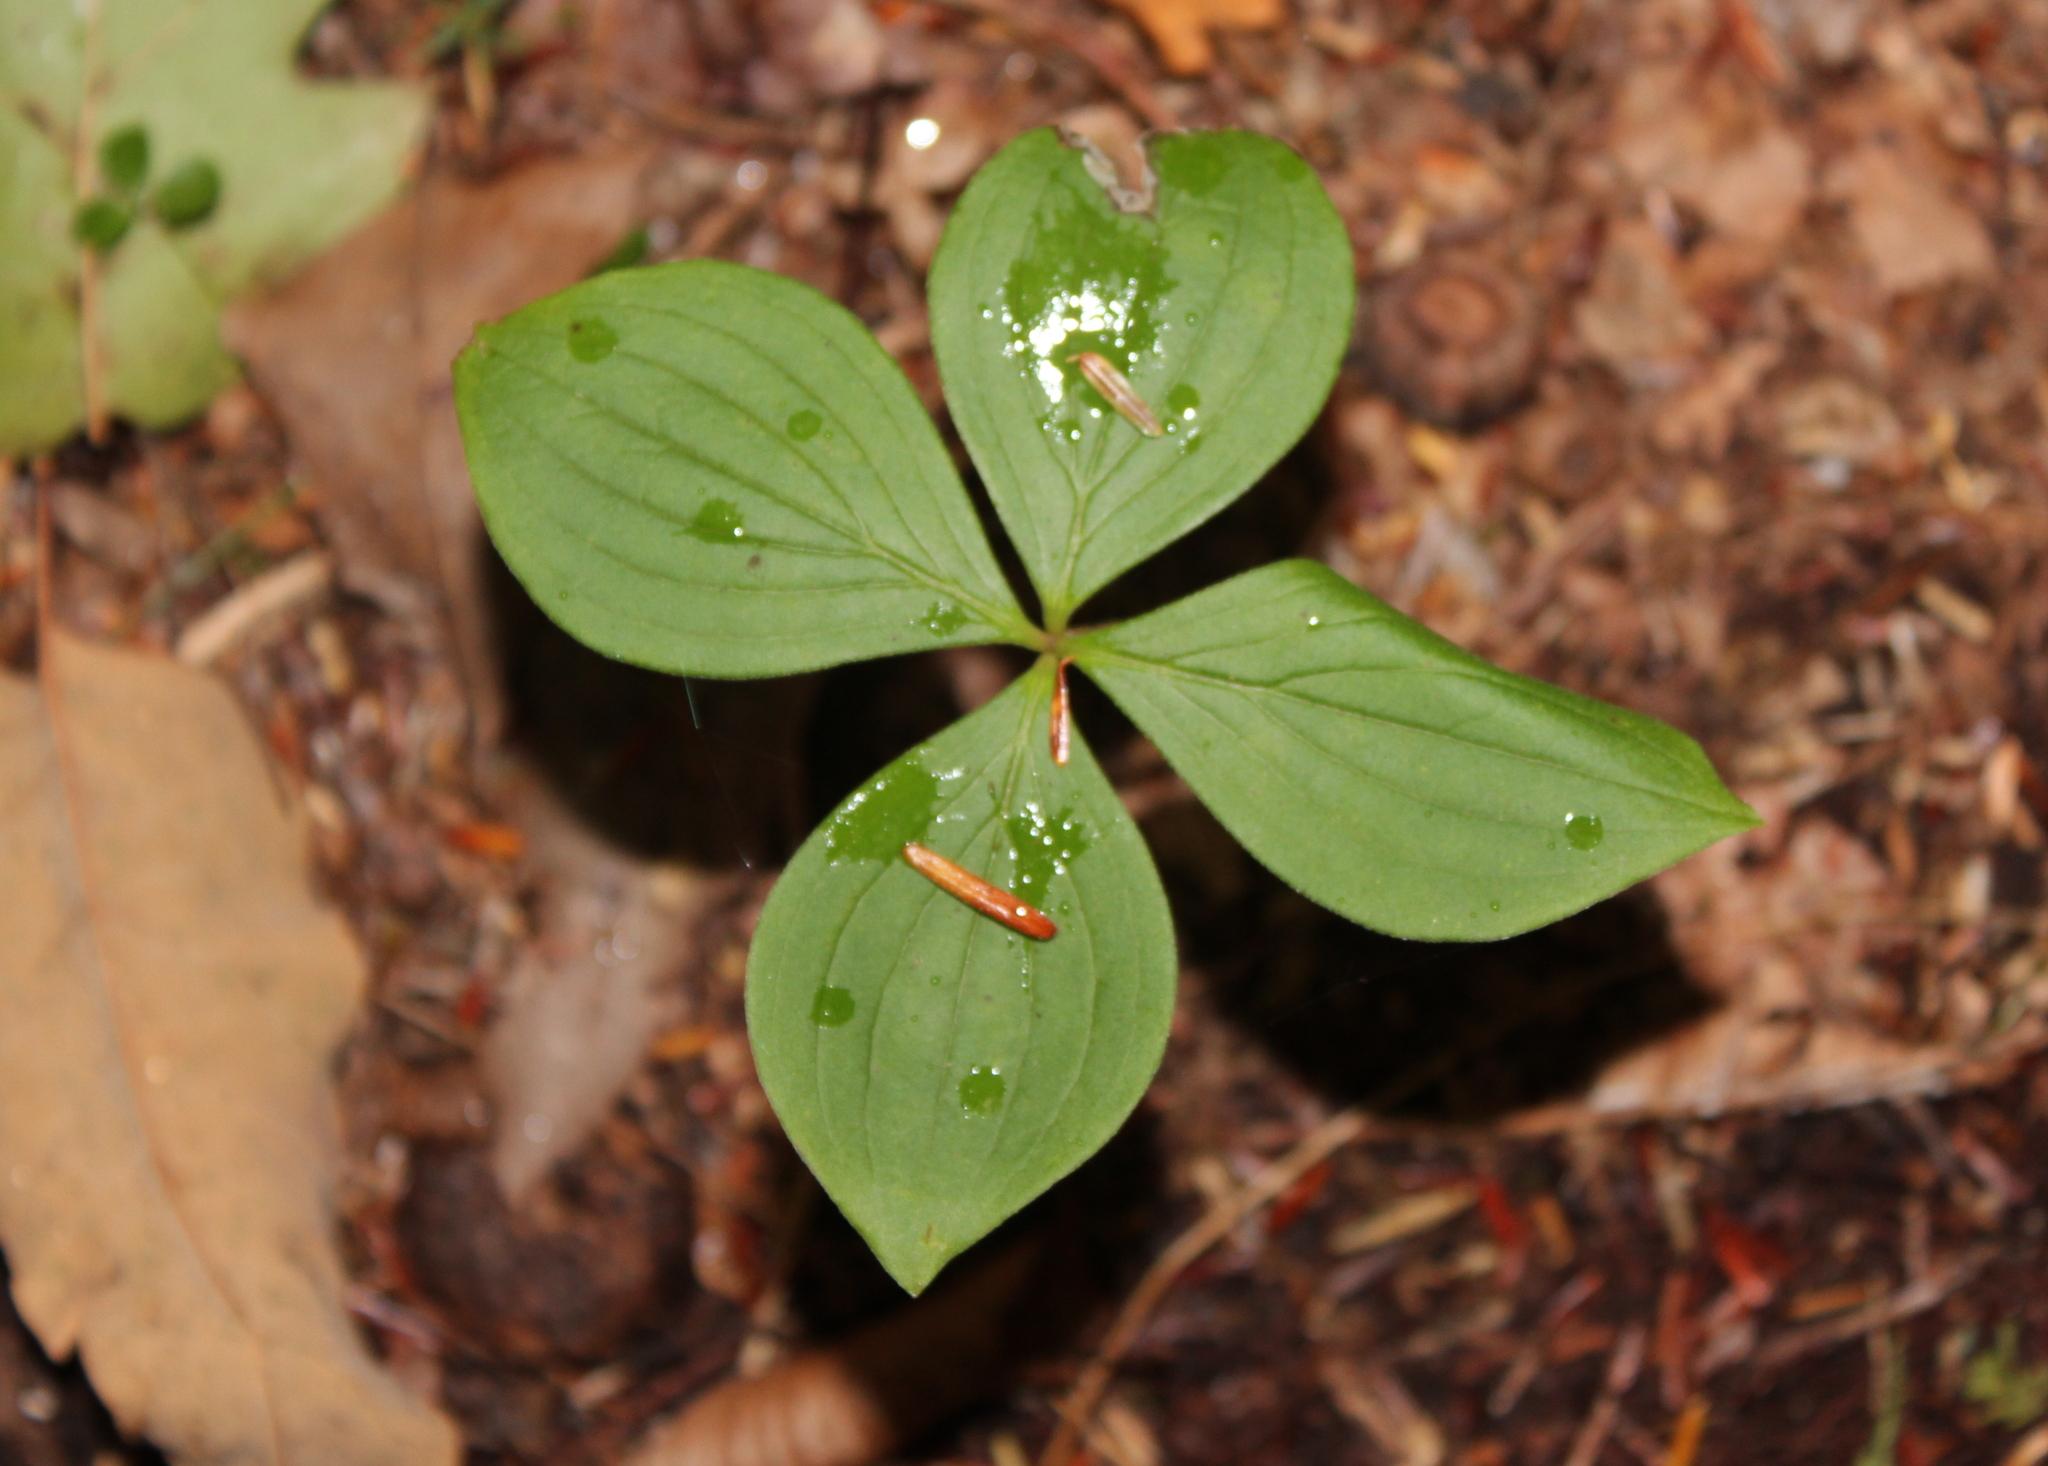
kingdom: Plantae
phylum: Tracheophyta
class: Magnoliopsida
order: Cornales
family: Cornaceae
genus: Cornus
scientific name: Cornus canadensis
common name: Creeping dogwood
